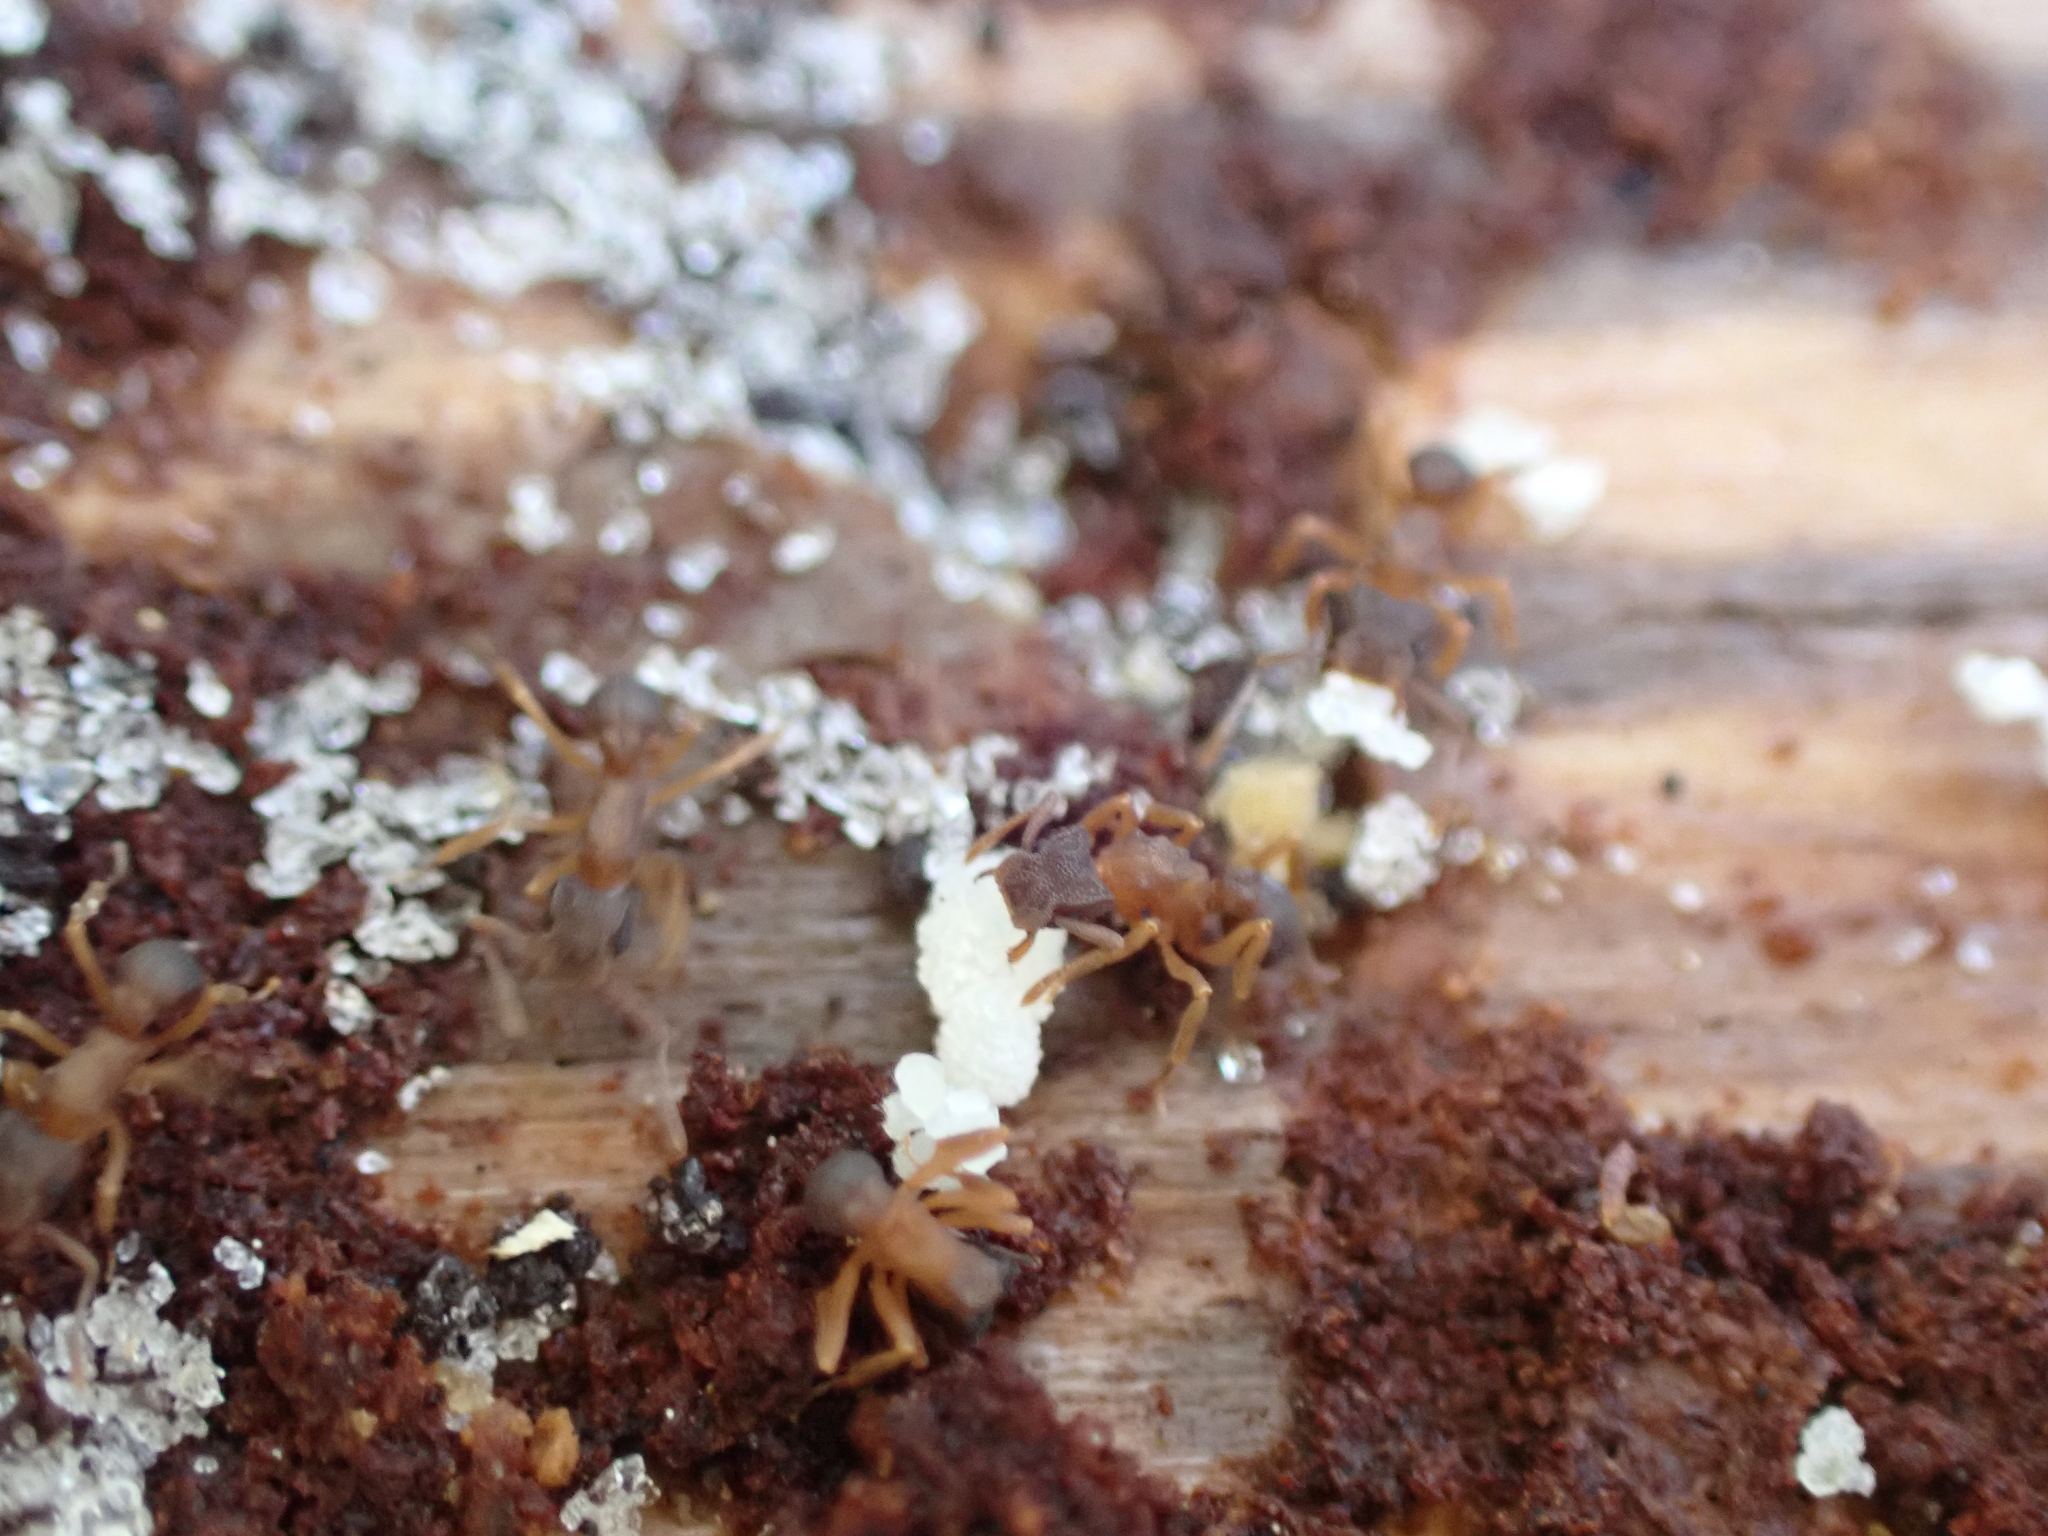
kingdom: Animalia
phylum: Arthropoda
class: Insecta
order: Hymenoptera
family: Formicidae
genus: Cyphomyrmex
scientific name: Cyphomyrmex minutus
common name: Ant
